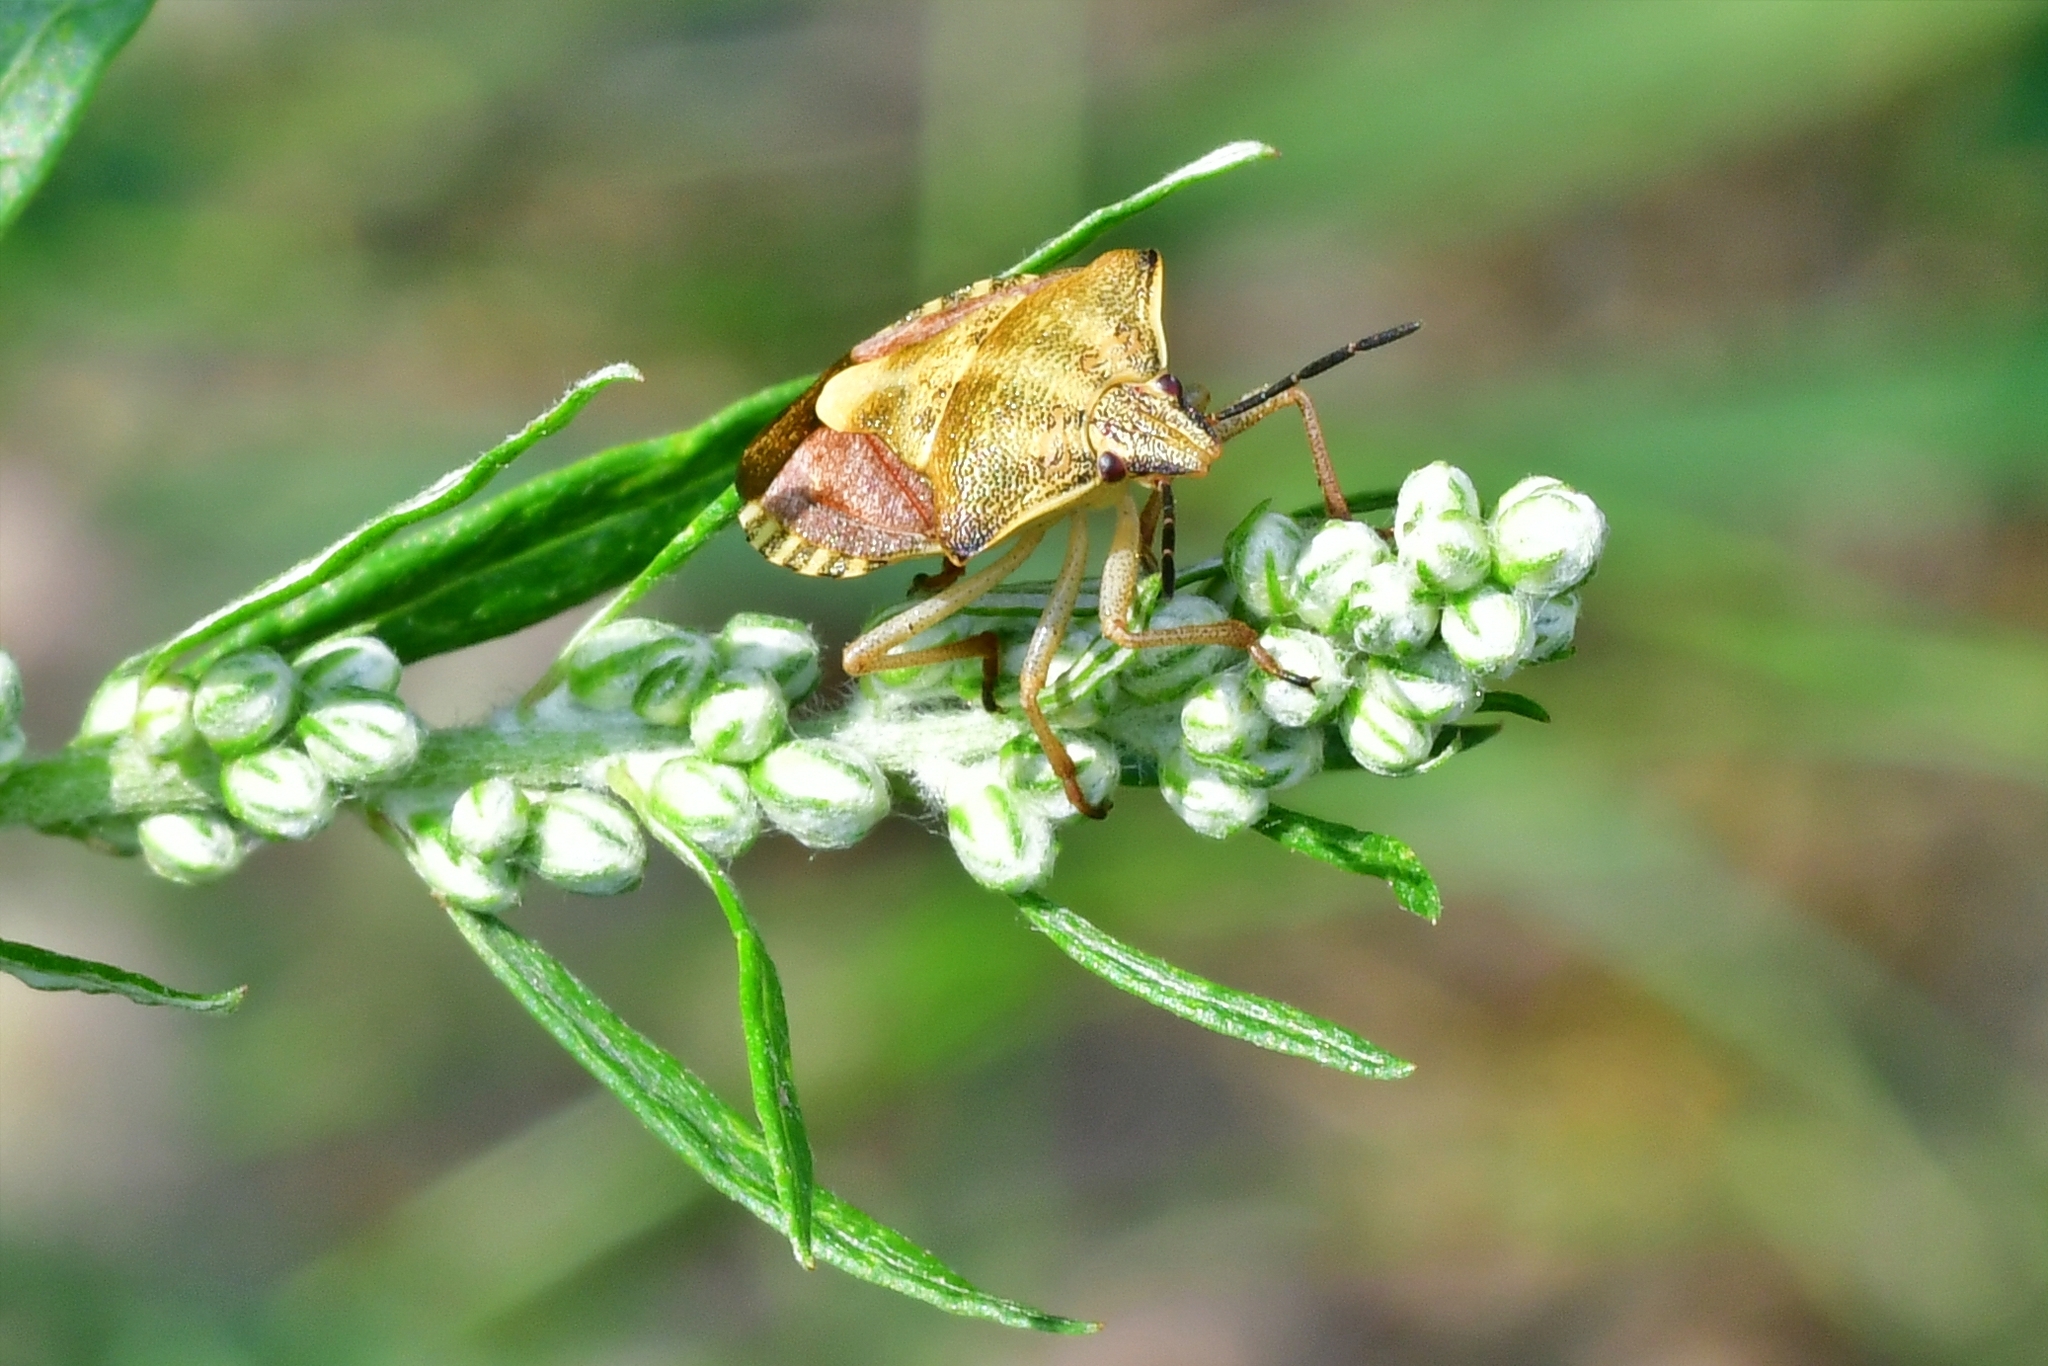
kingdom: Animalia
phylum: Arthropoda
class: Insecta
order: Hemiptera
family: Pentatomidae
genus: Carpocoris
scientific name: Carpocoris purpureipennis
